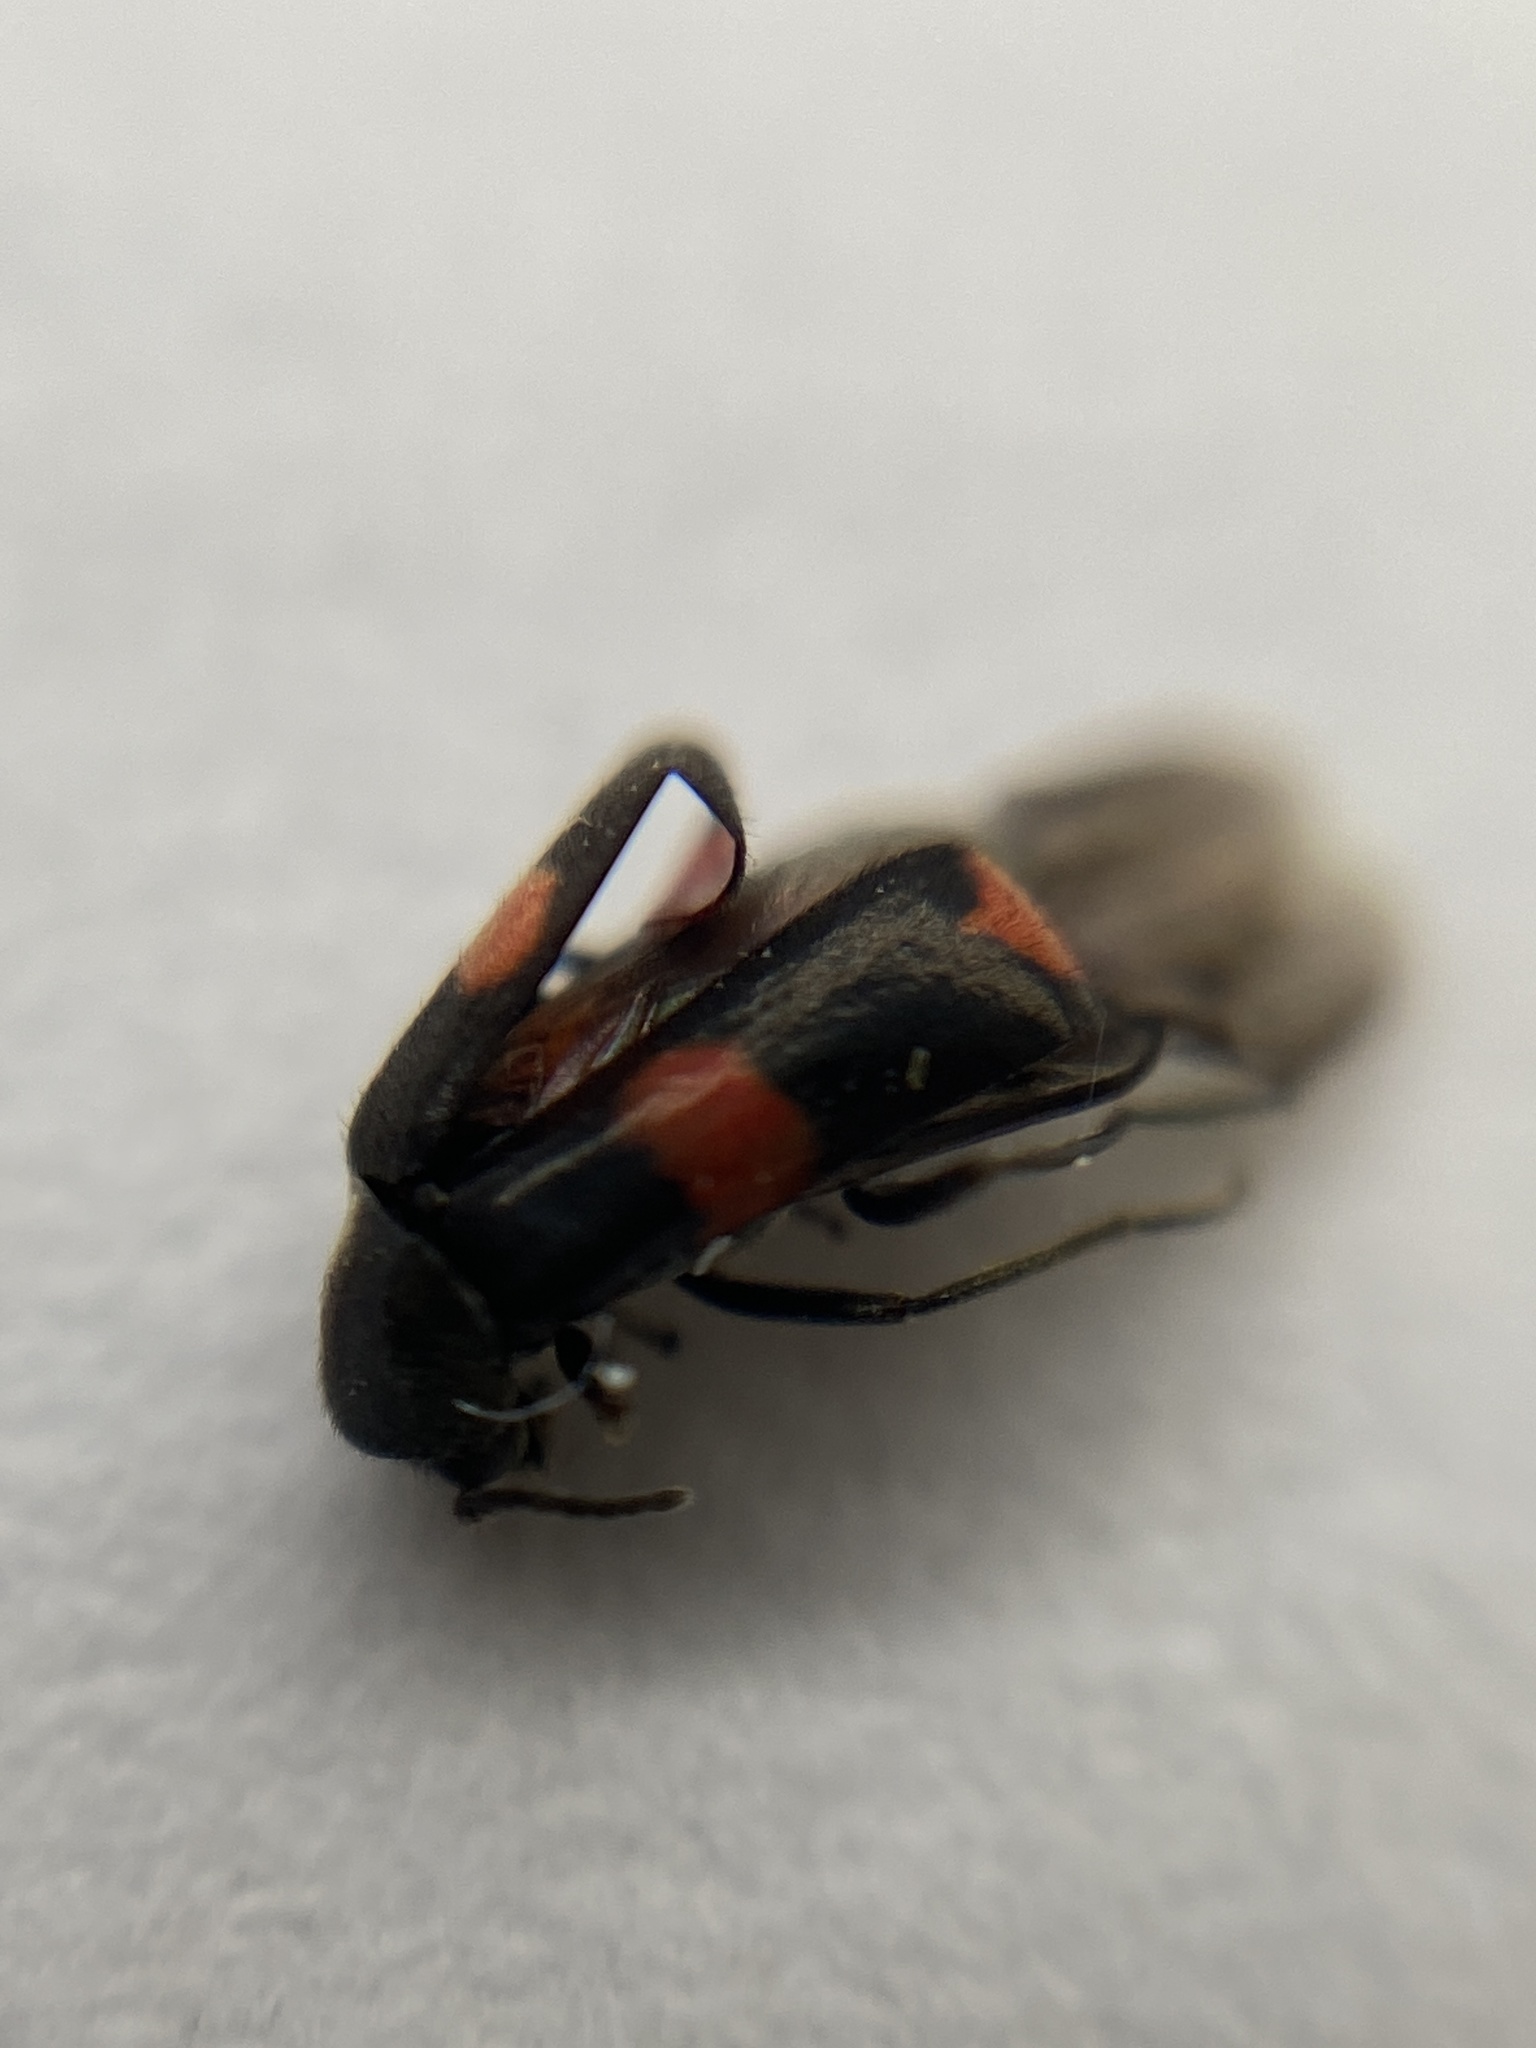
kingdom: Animalia
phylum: Arthropoda
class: Insecta
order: Coleoptera
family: Melyridae
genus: Anthocomus
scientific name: Anthocomus fasciatus
